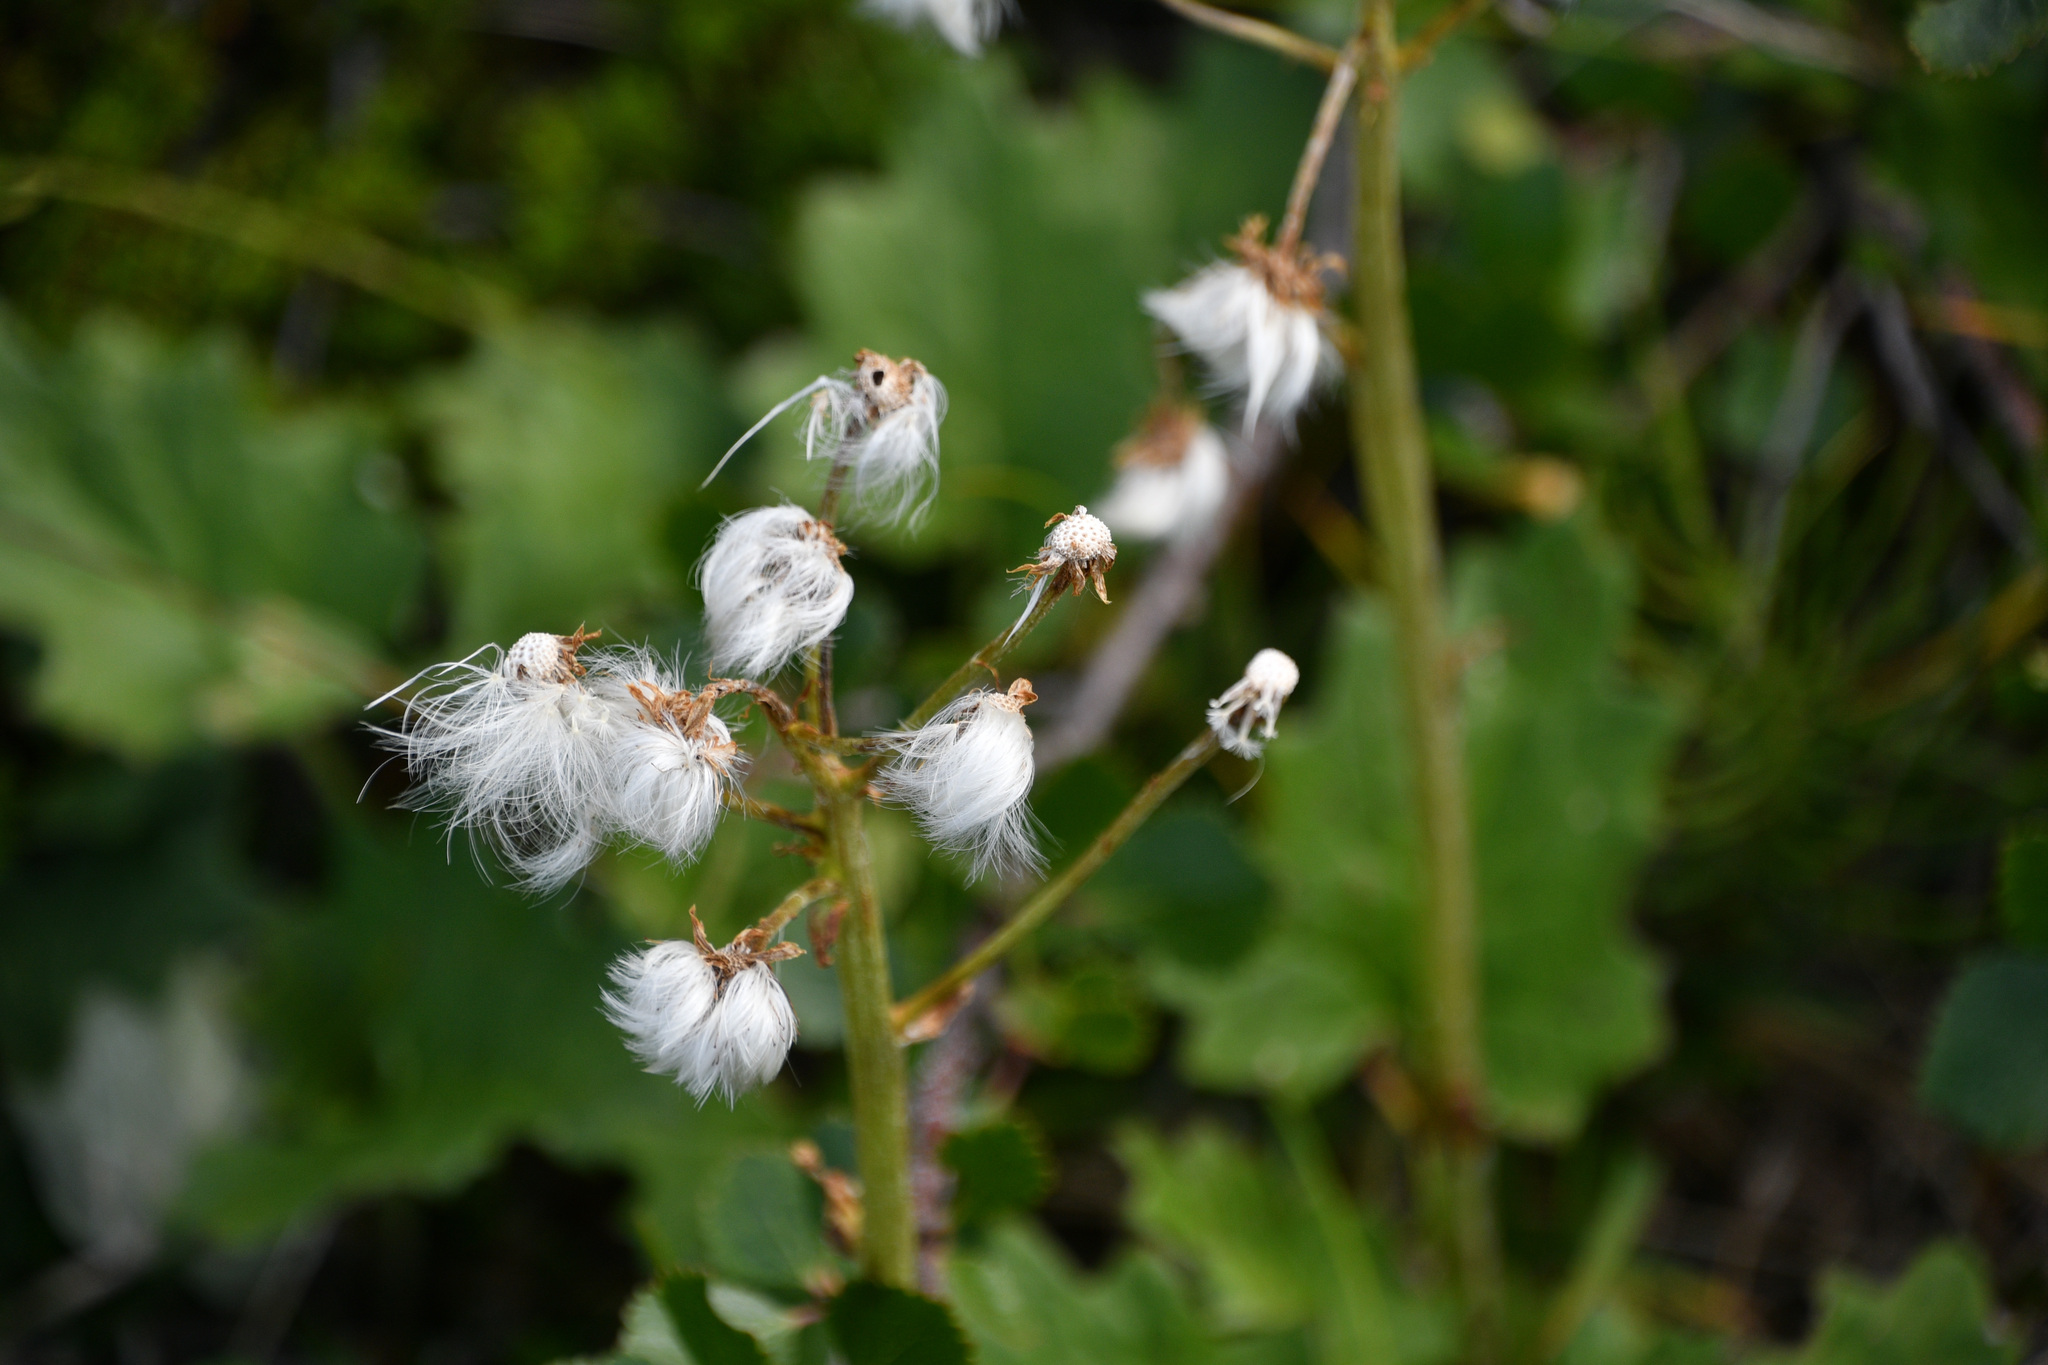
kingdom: Plantae
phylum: Tracheophyta
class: Magnoliopsida
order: Asterales
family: Asteraceae
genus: Petasites
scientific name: Petasites frigidus
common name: Arctic butterbur
